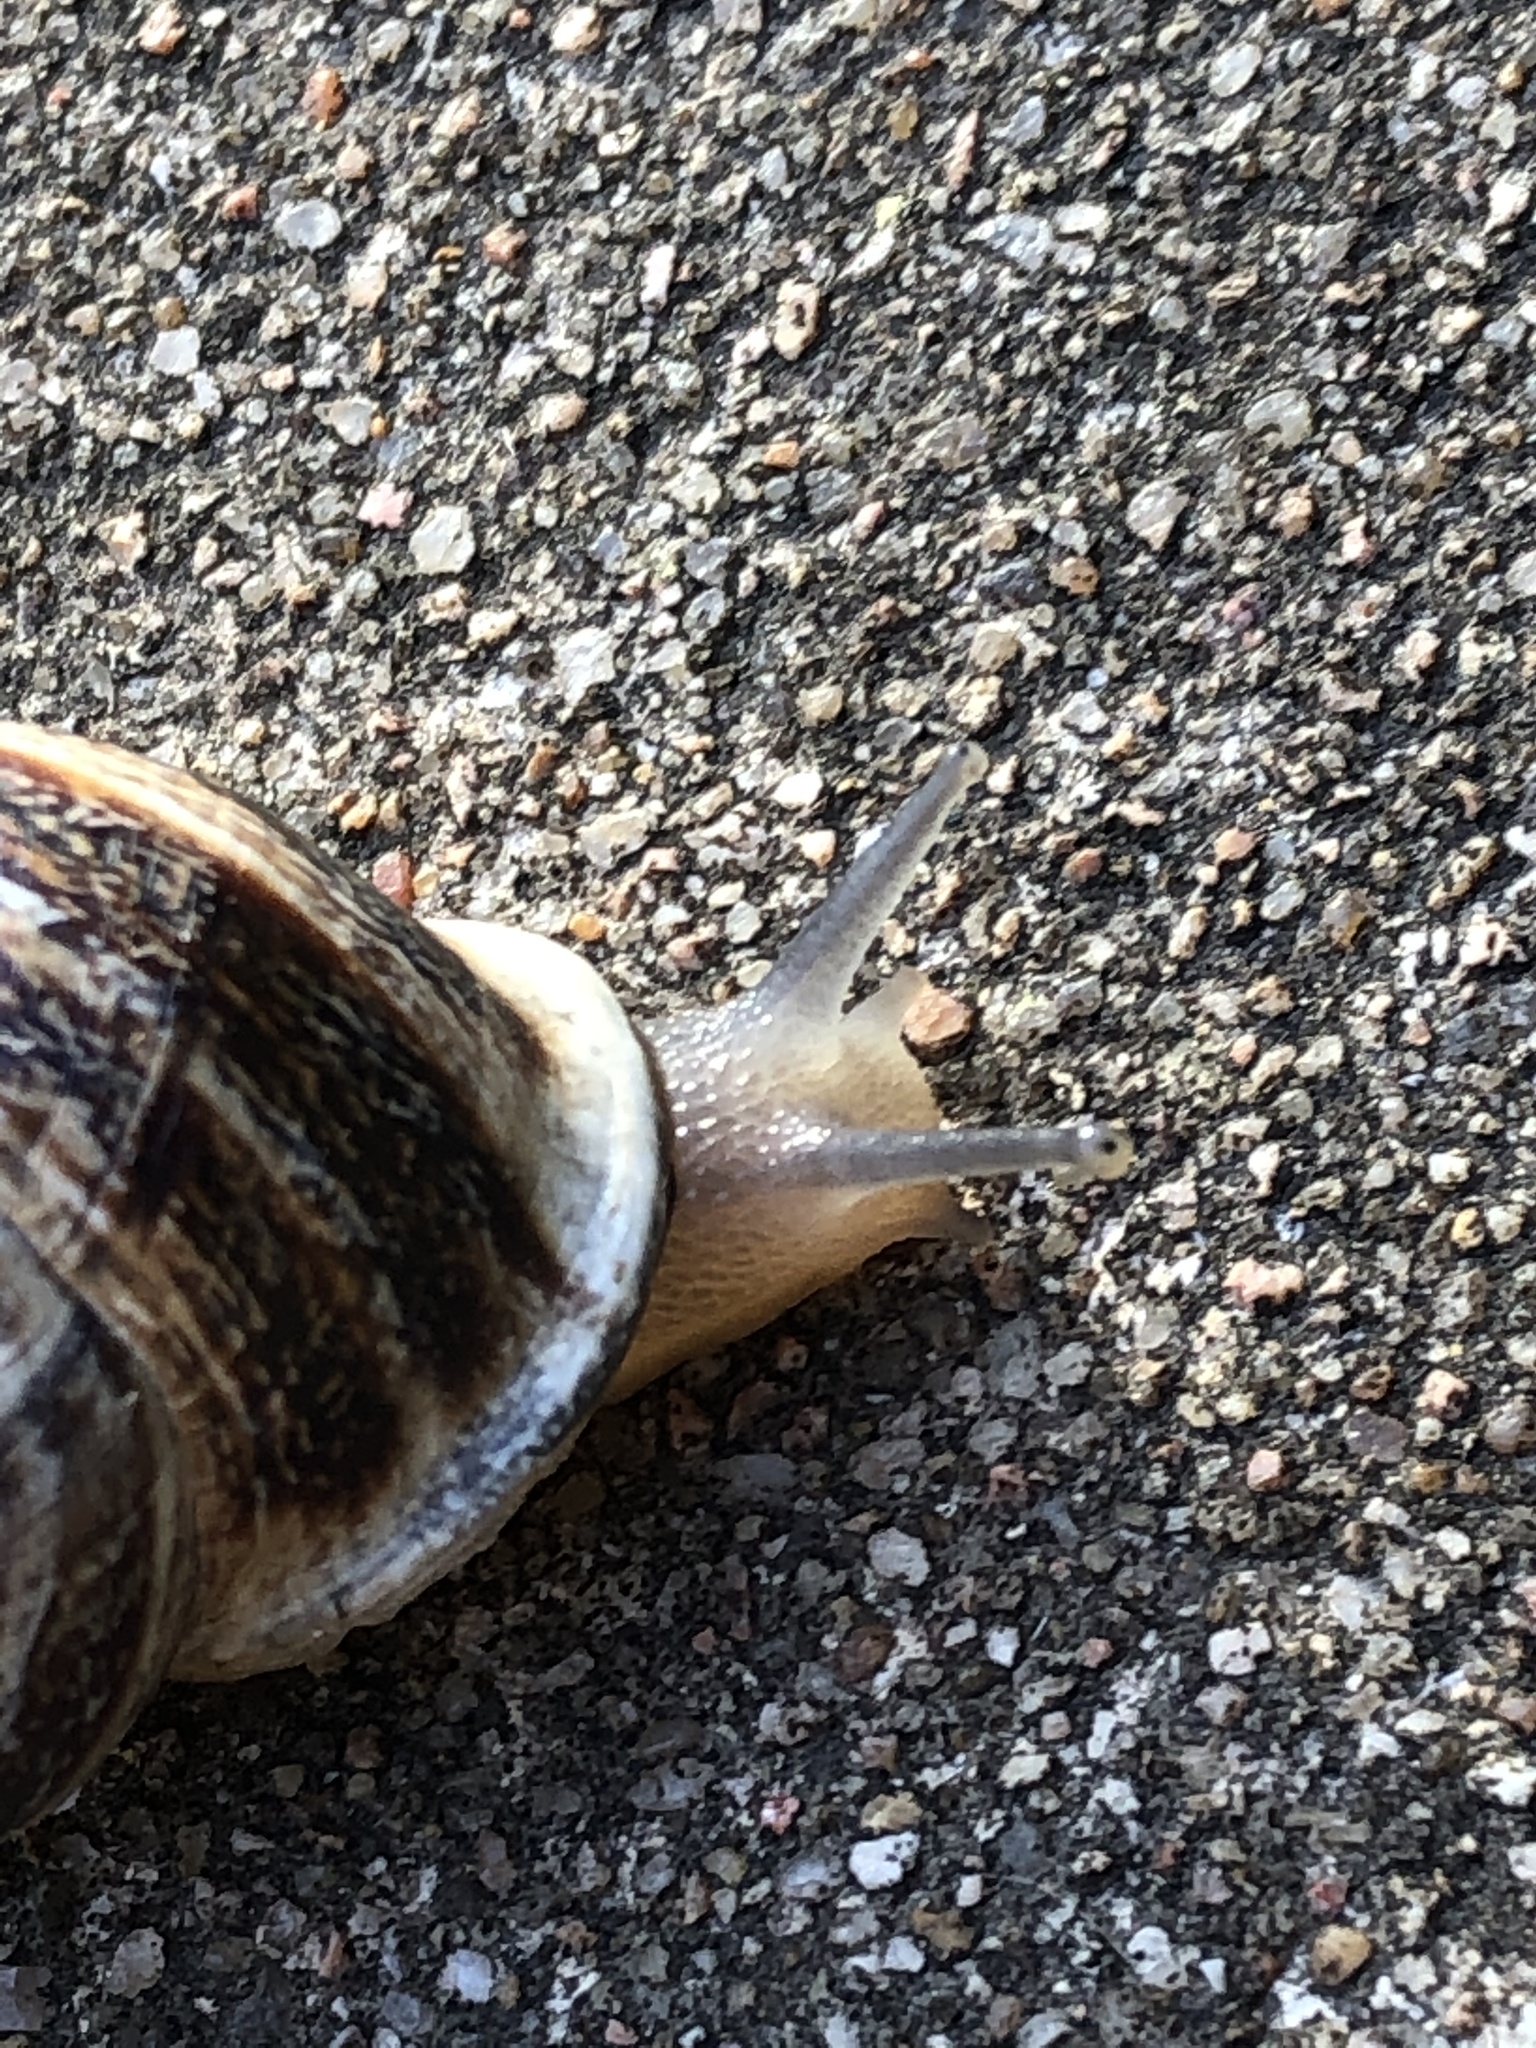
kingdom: Animalia
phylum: Mollusca
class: Gastropoda
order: Stylommatophora
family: Helicidae
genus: Otala
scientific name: Otala lactea
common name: Milk snail
